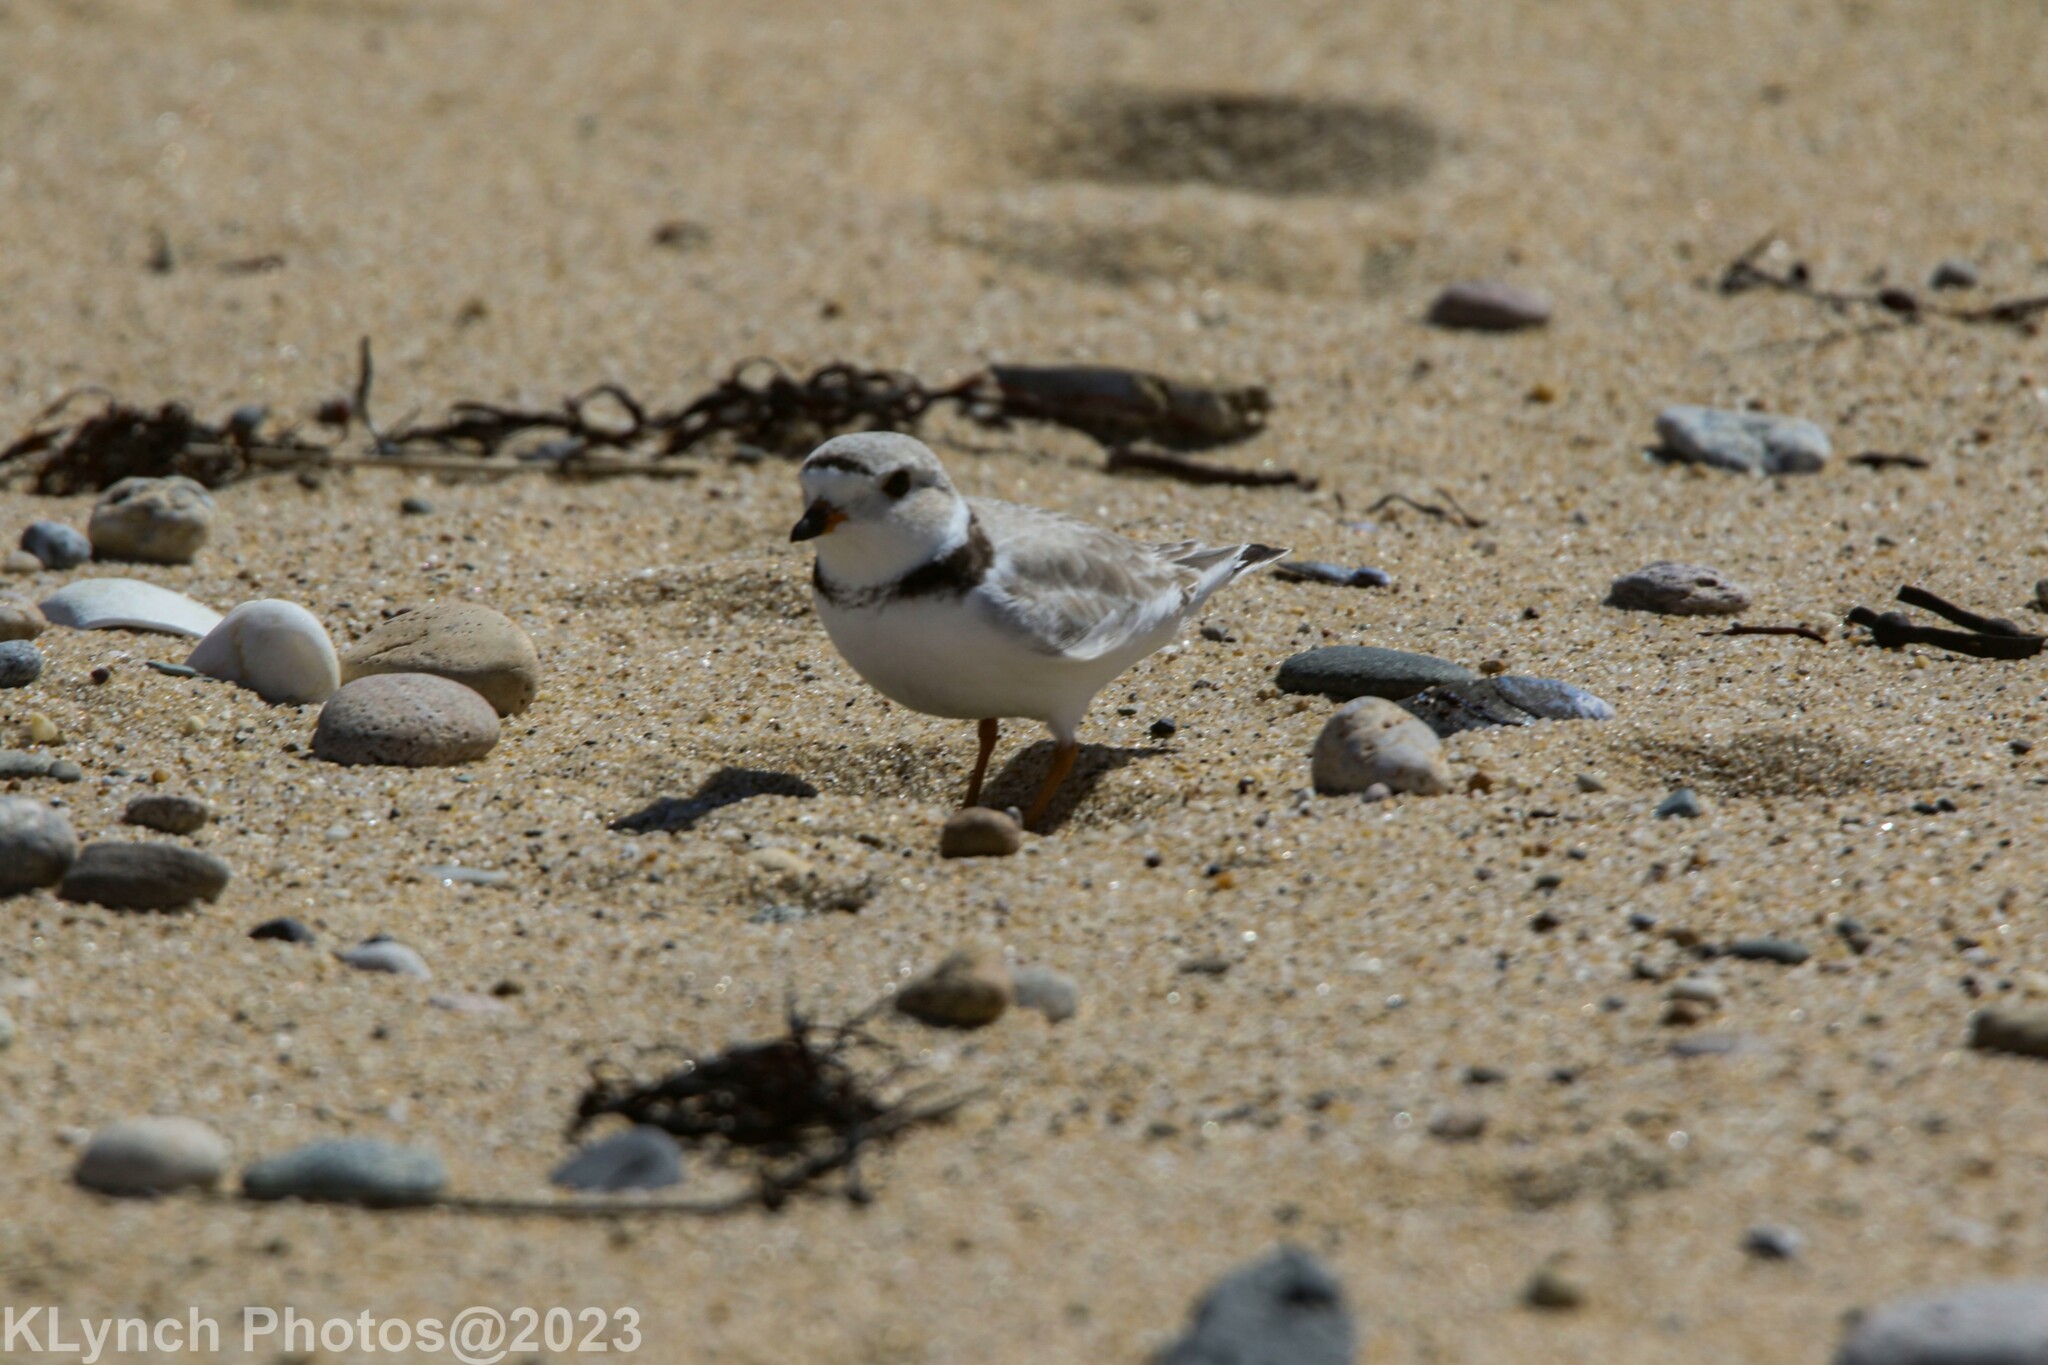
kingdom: Animalia
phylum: Chordata
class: Aves
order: Charadriiformes
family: Charadriidae
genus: Charadrius
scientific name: Charadrius melodus
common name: Piping plover
